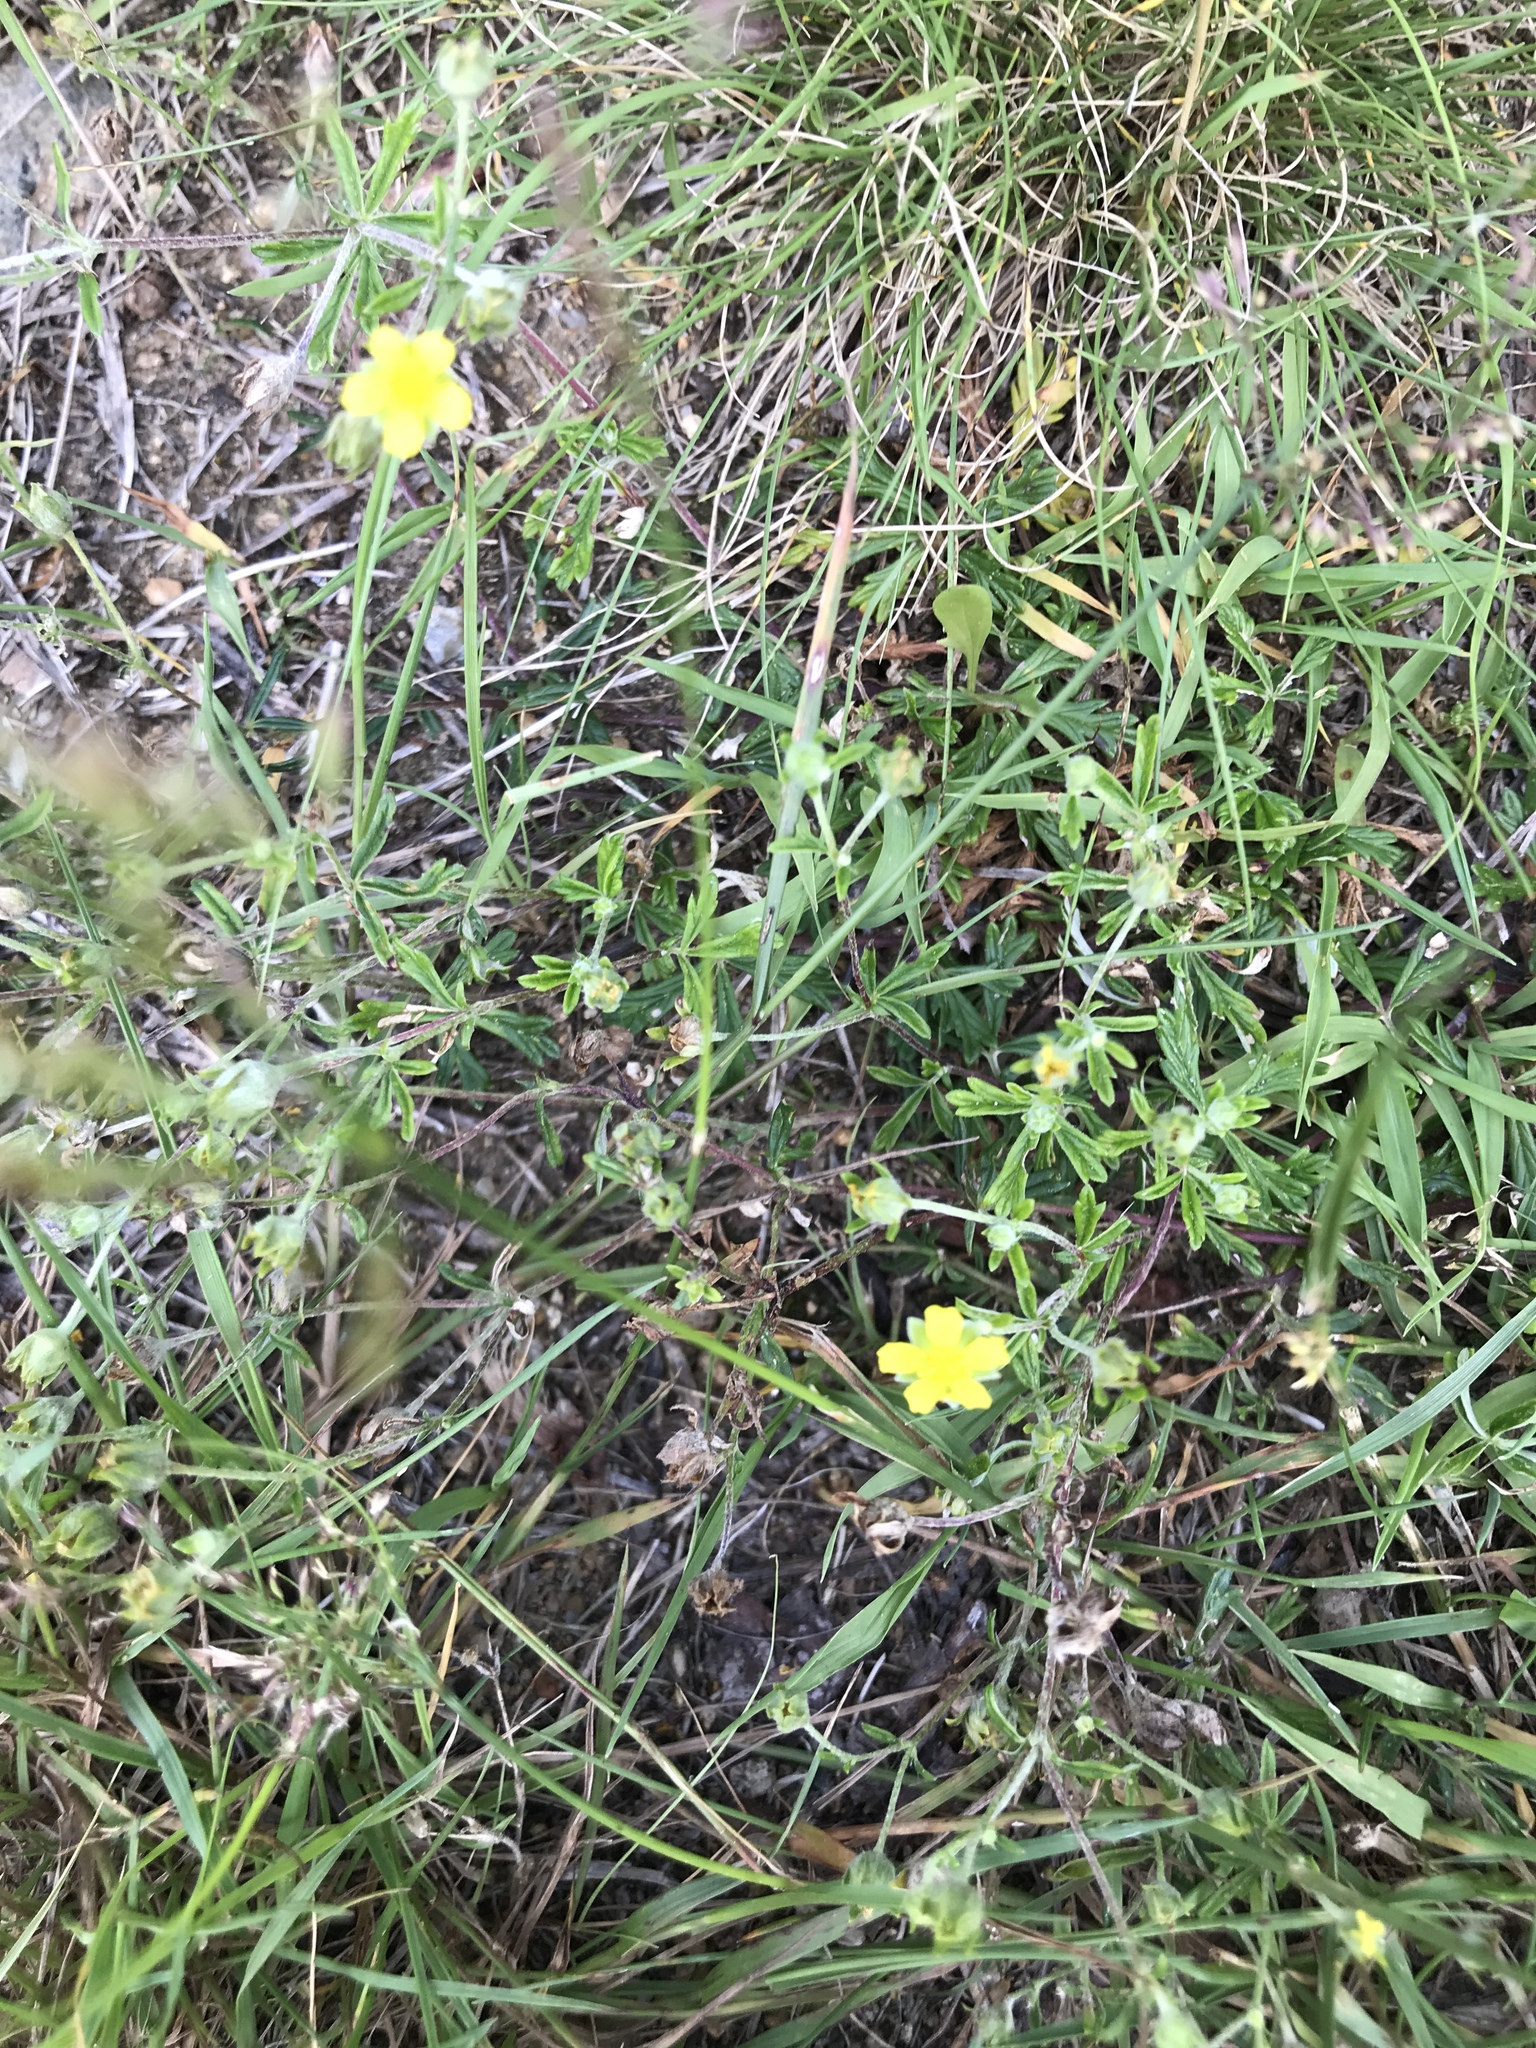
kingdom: Plantae
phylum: Tracheophyta
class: Magnoliopsida
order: Rosales
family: Rosaceae
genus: Potentilla
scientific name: Potentilla argentea
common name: Hoary cinquefoil
